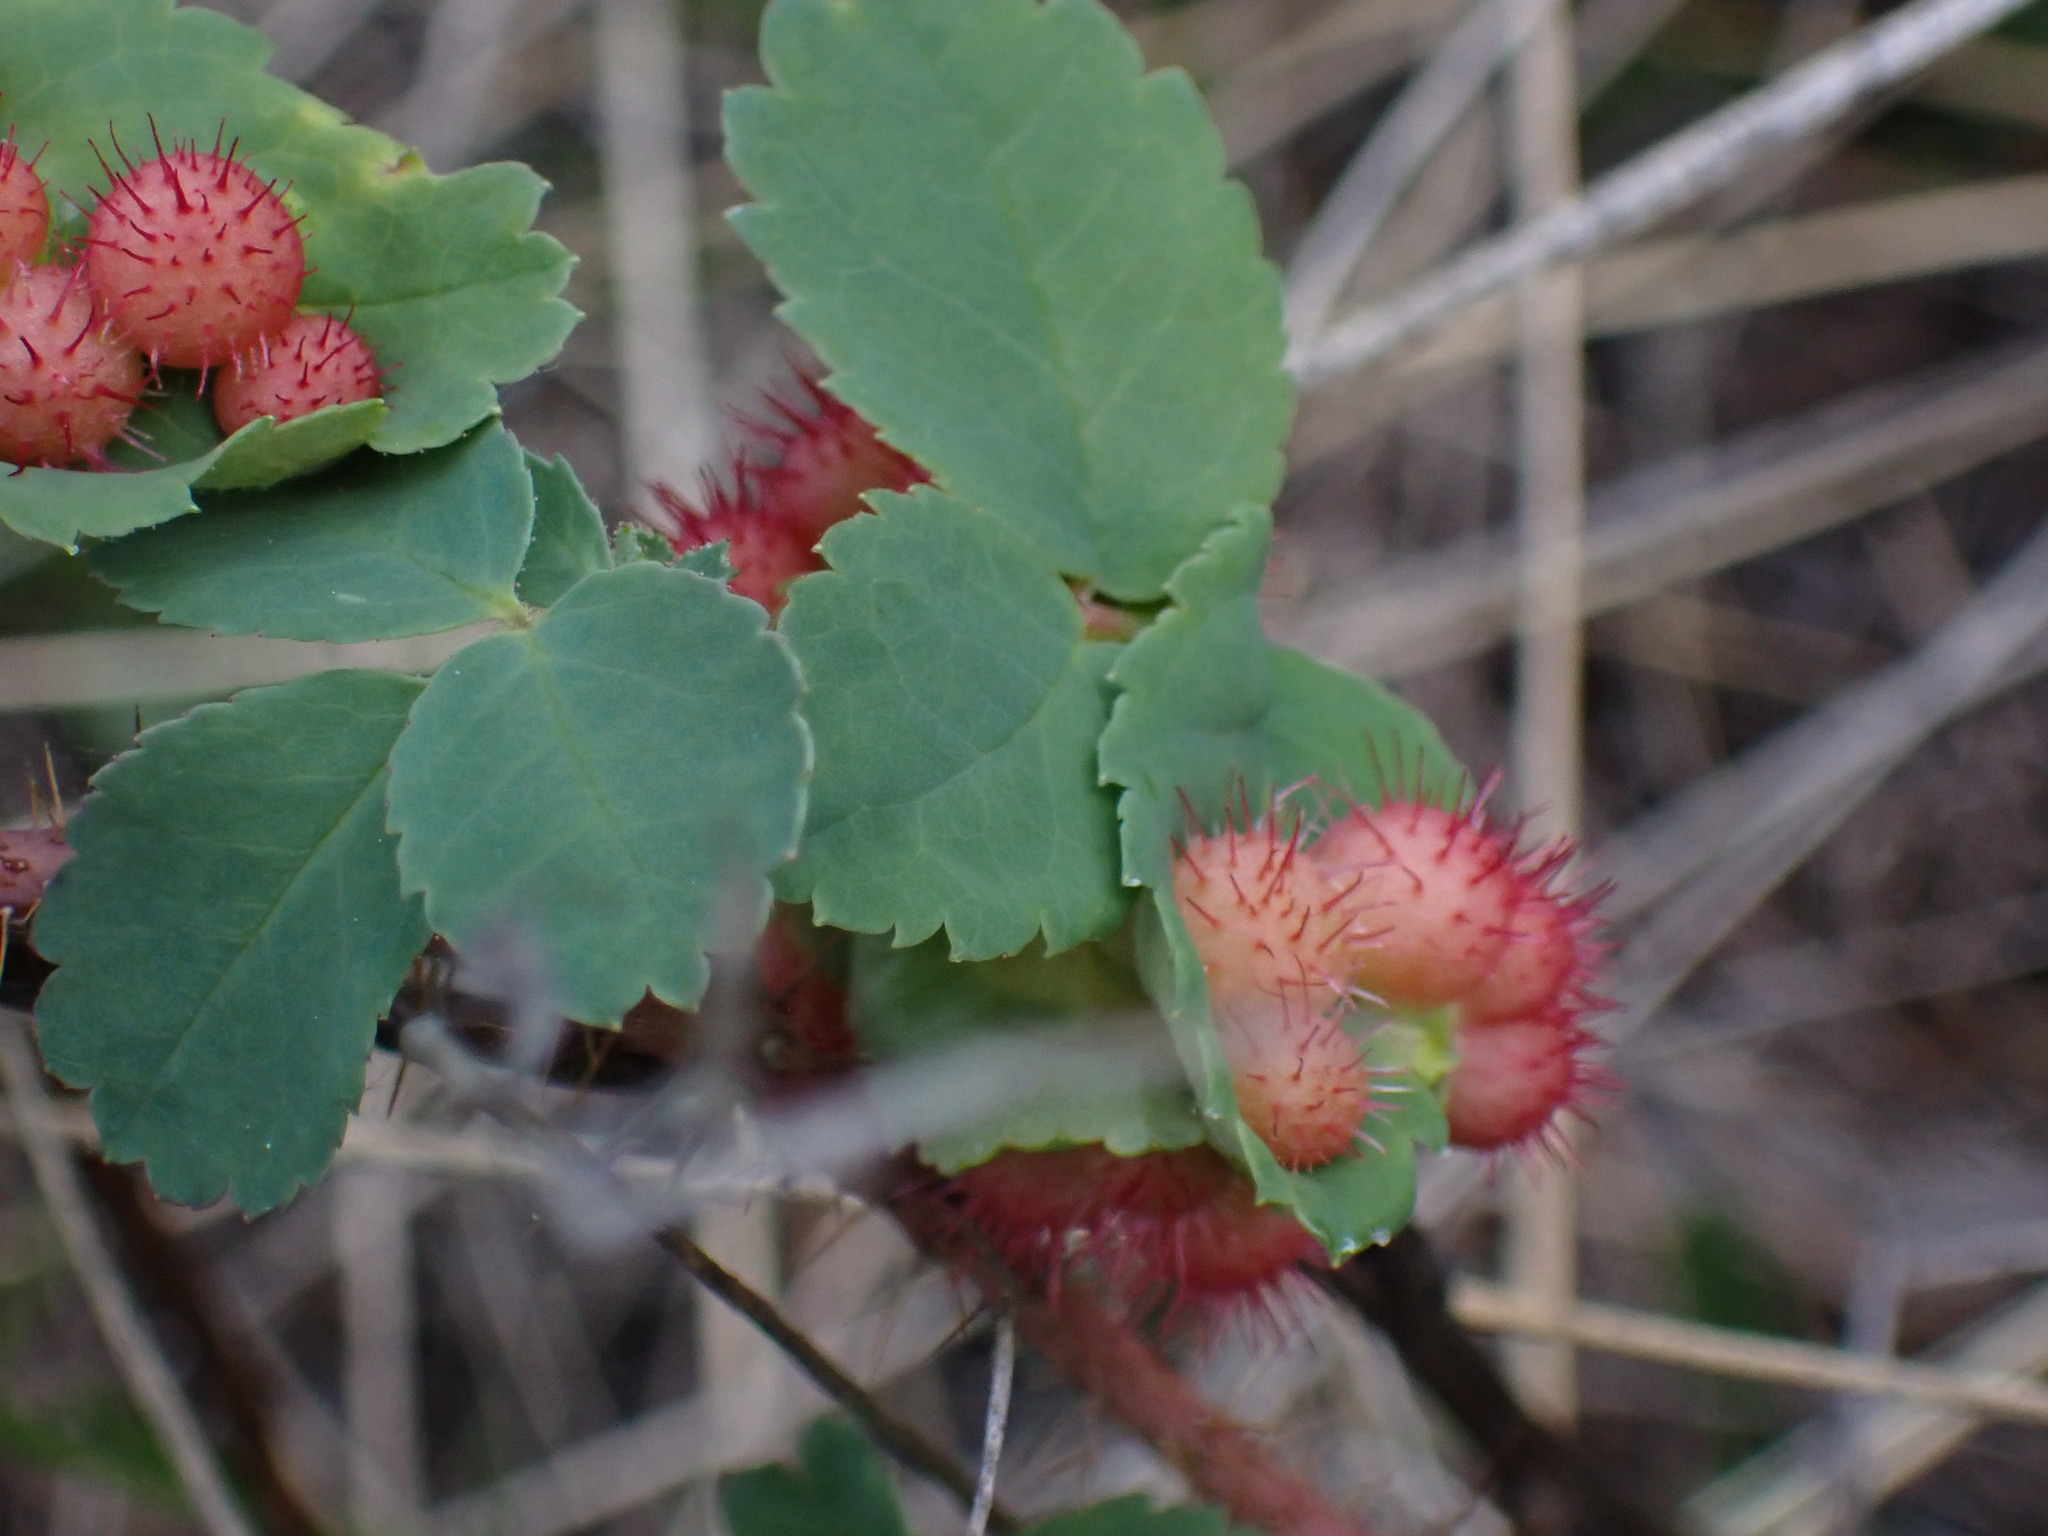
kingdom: Animalia
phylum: Arthropoda
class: Insecta
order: Hymenoptera
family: Cynipidae
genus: Diplolepis
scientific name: Diplolepis polita
